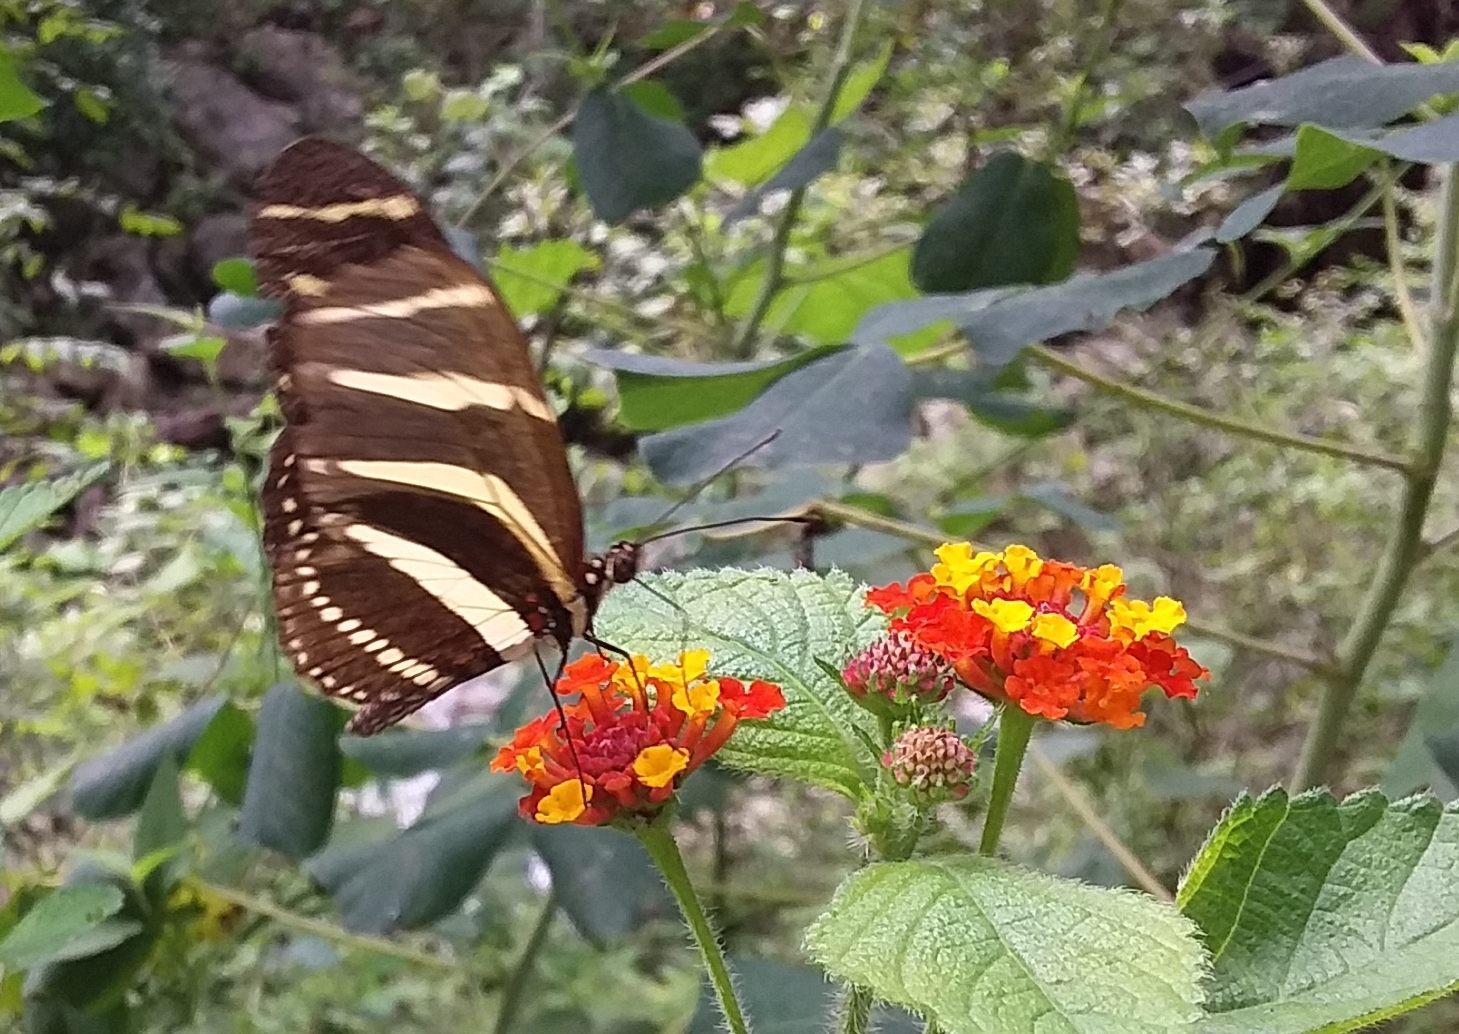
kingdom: Animalia
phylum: Arthropoda
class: Insecta
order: Lepidoptera
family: Nymphalidae
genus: Heliconius
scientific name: Heliconius charithonia
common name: Zebra long wing
